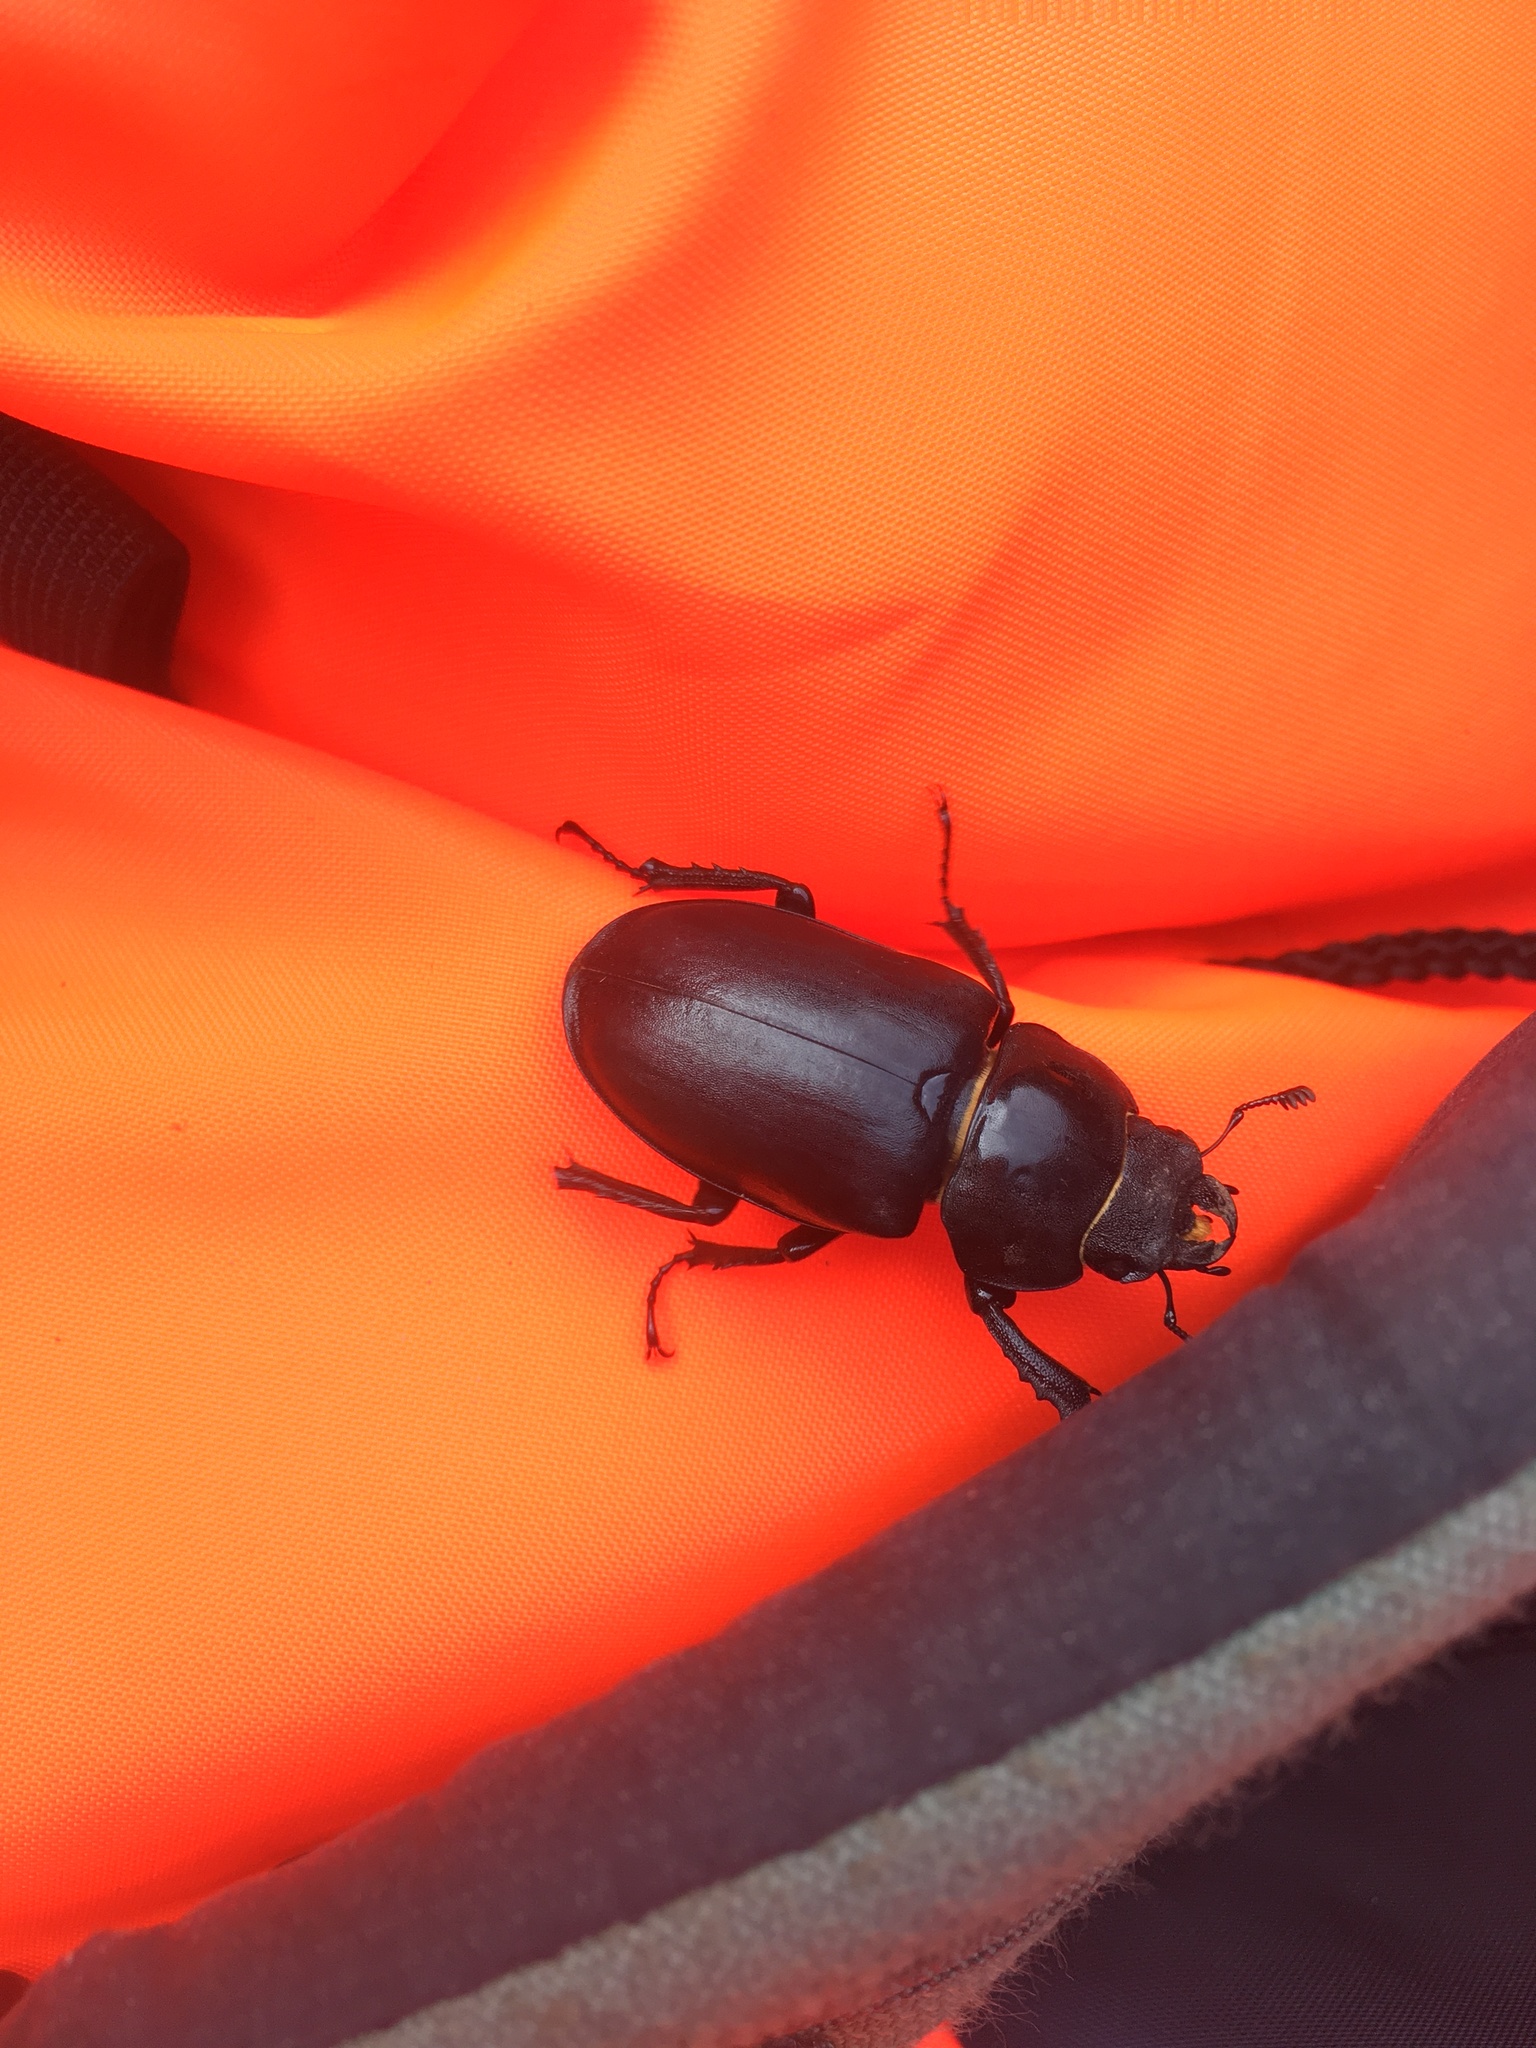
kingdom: Animalia
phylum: Arthropoda
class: Insecta
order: Coleoptera
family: Lucanidae
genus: Lucanus
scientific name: Lucanus cervus
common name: Stag beetle
